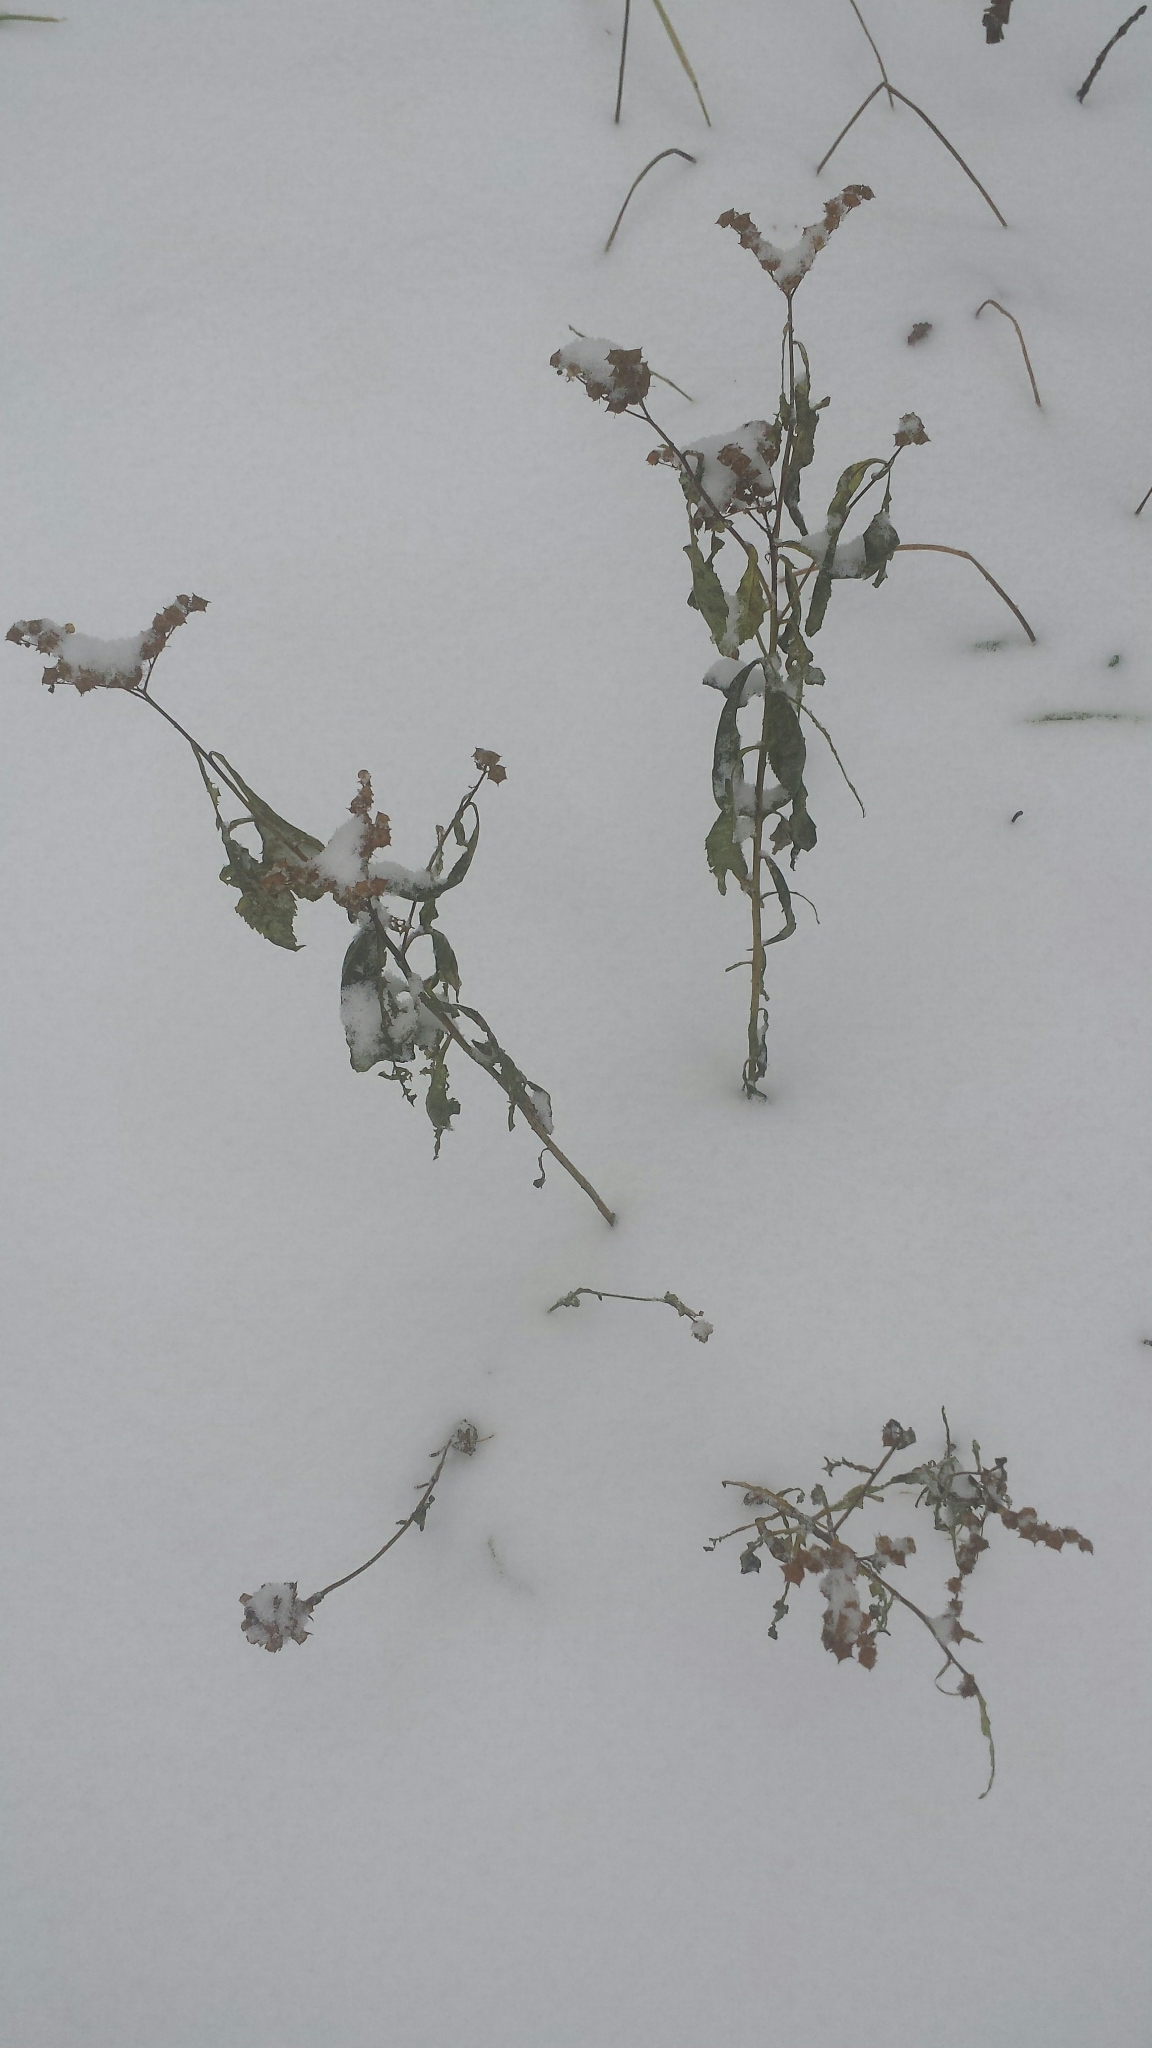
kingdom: Plantae
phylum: Tracheophyta
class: Magnoliopsida
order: Saxifragales
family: Penthoraceae
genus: Penthorum
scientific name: Penthorum sedoides
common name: Ditch stonecrop
